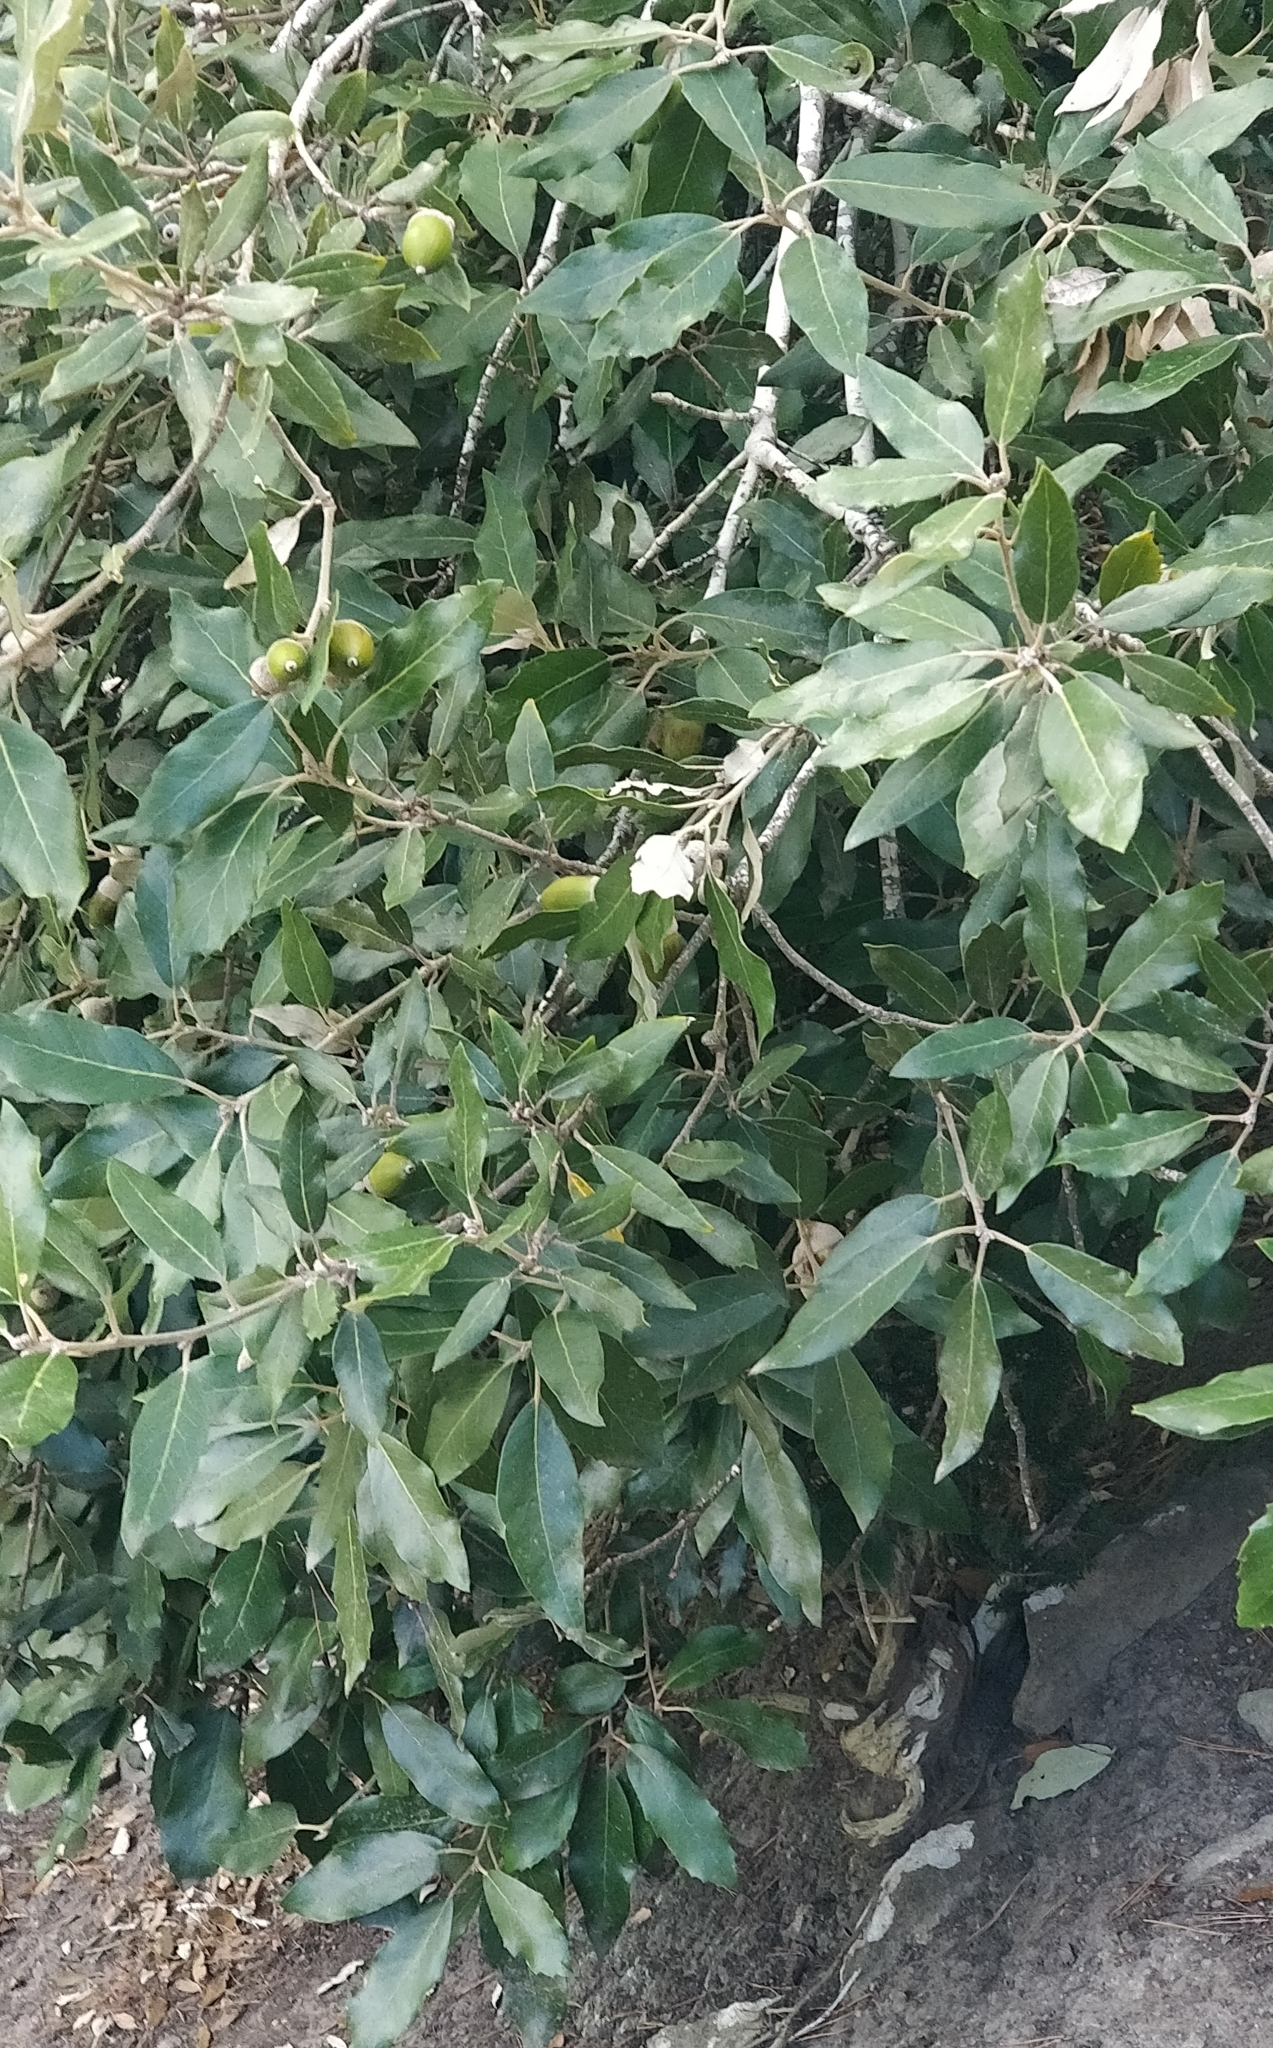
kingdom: Plantae
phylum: Tracheophyta
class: Magnoliopsida
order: Fagales
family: Fagaceae
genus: Quercus
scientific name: Quercus ilex
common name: Evergreen oak
